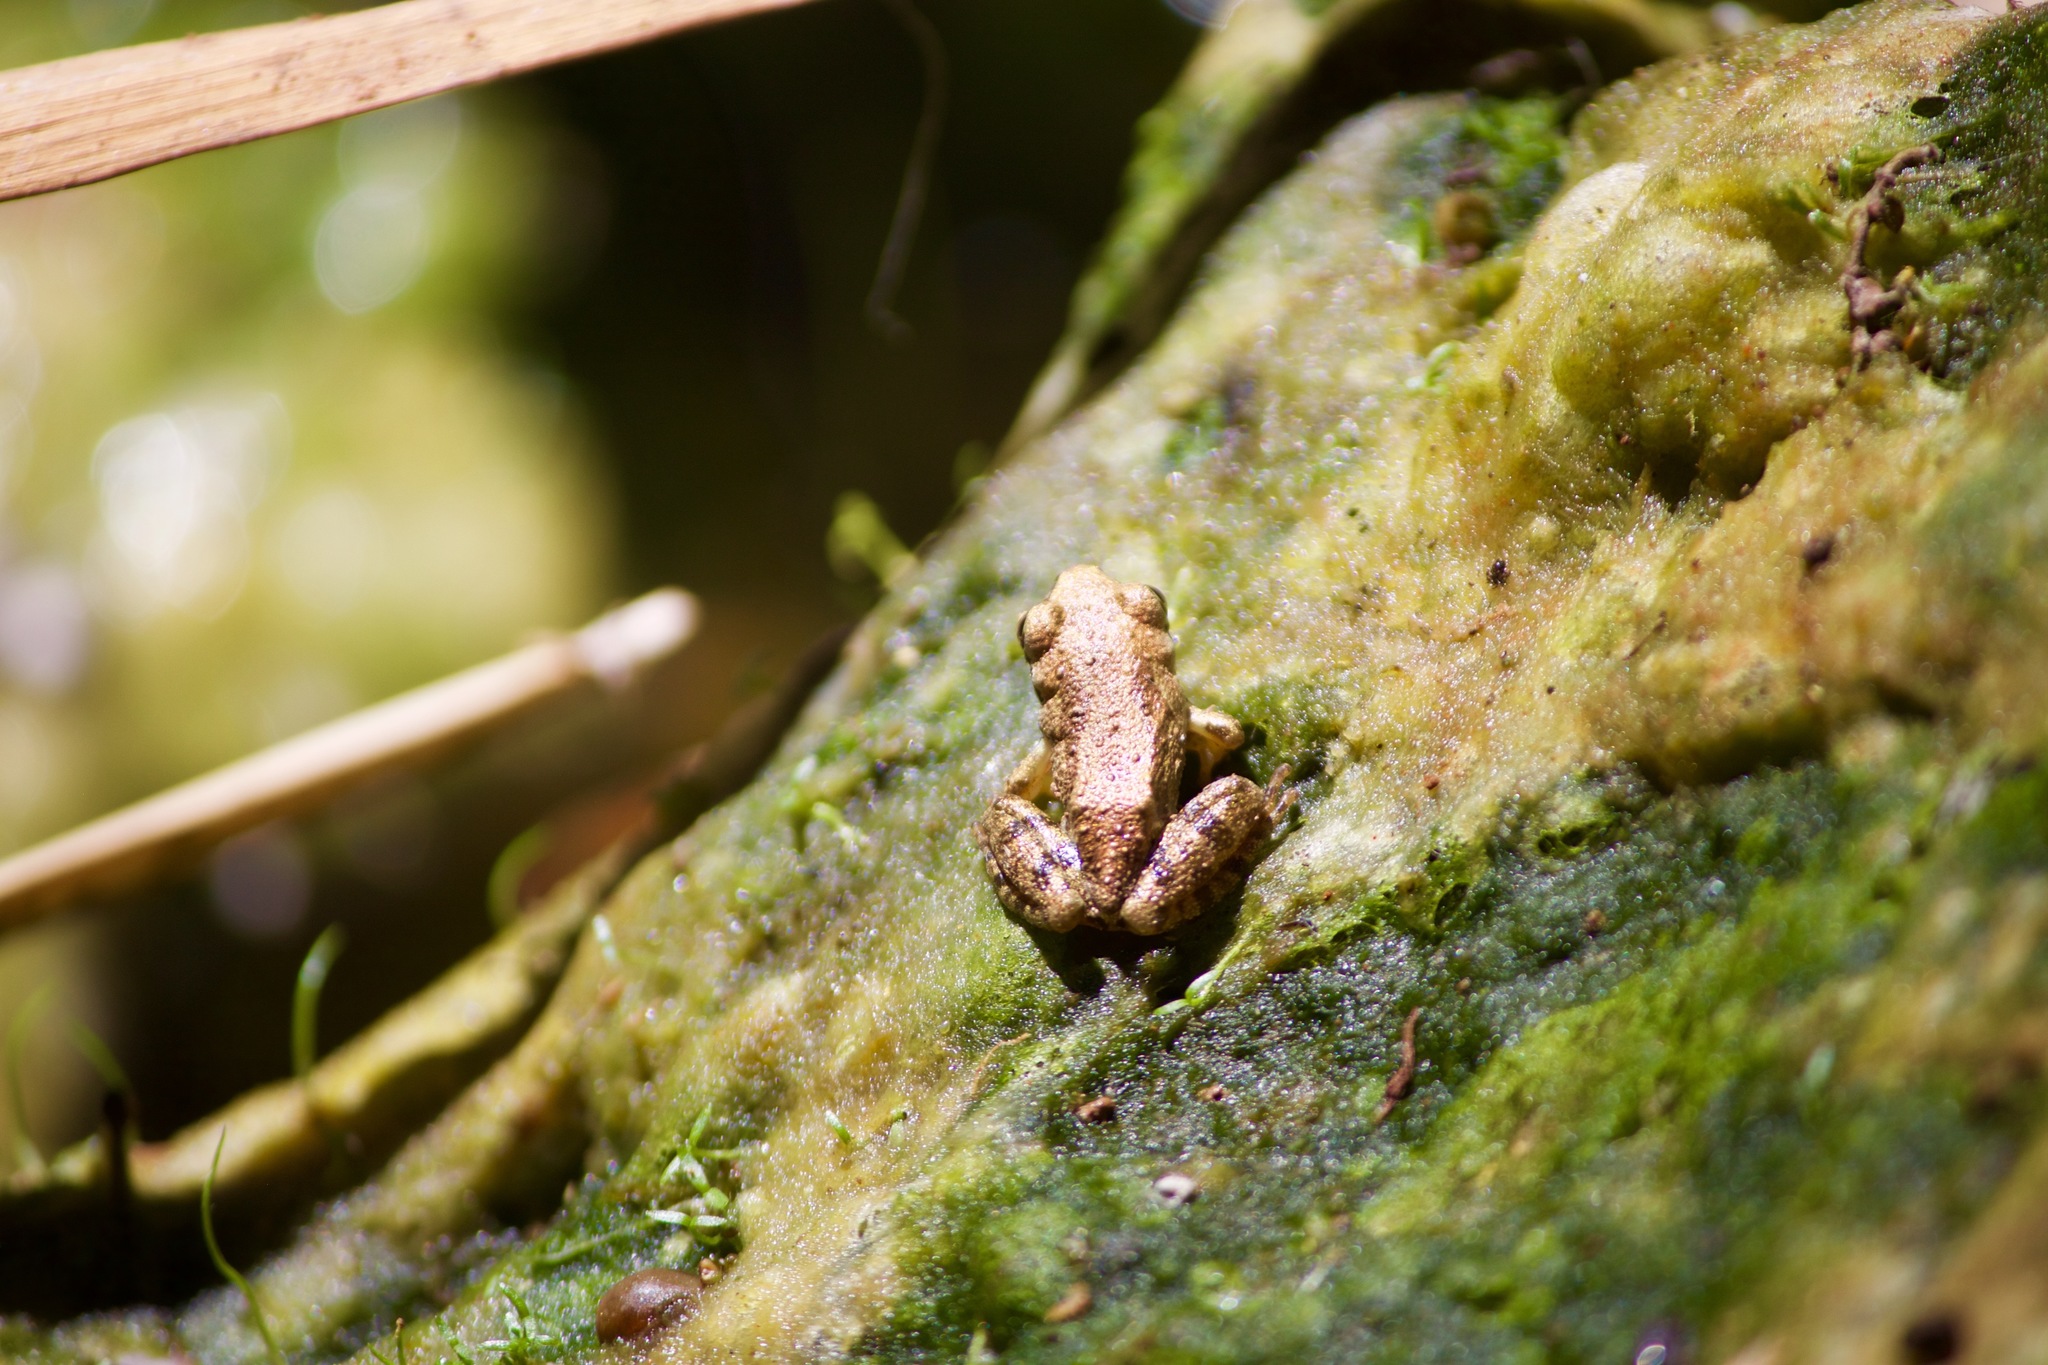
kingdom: Animalia
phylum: Chordata
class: Amphibia
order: Anura
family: Hylidae
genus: Pseudacris
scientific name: Pseudacris regilla
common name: Pacific chorus frog
